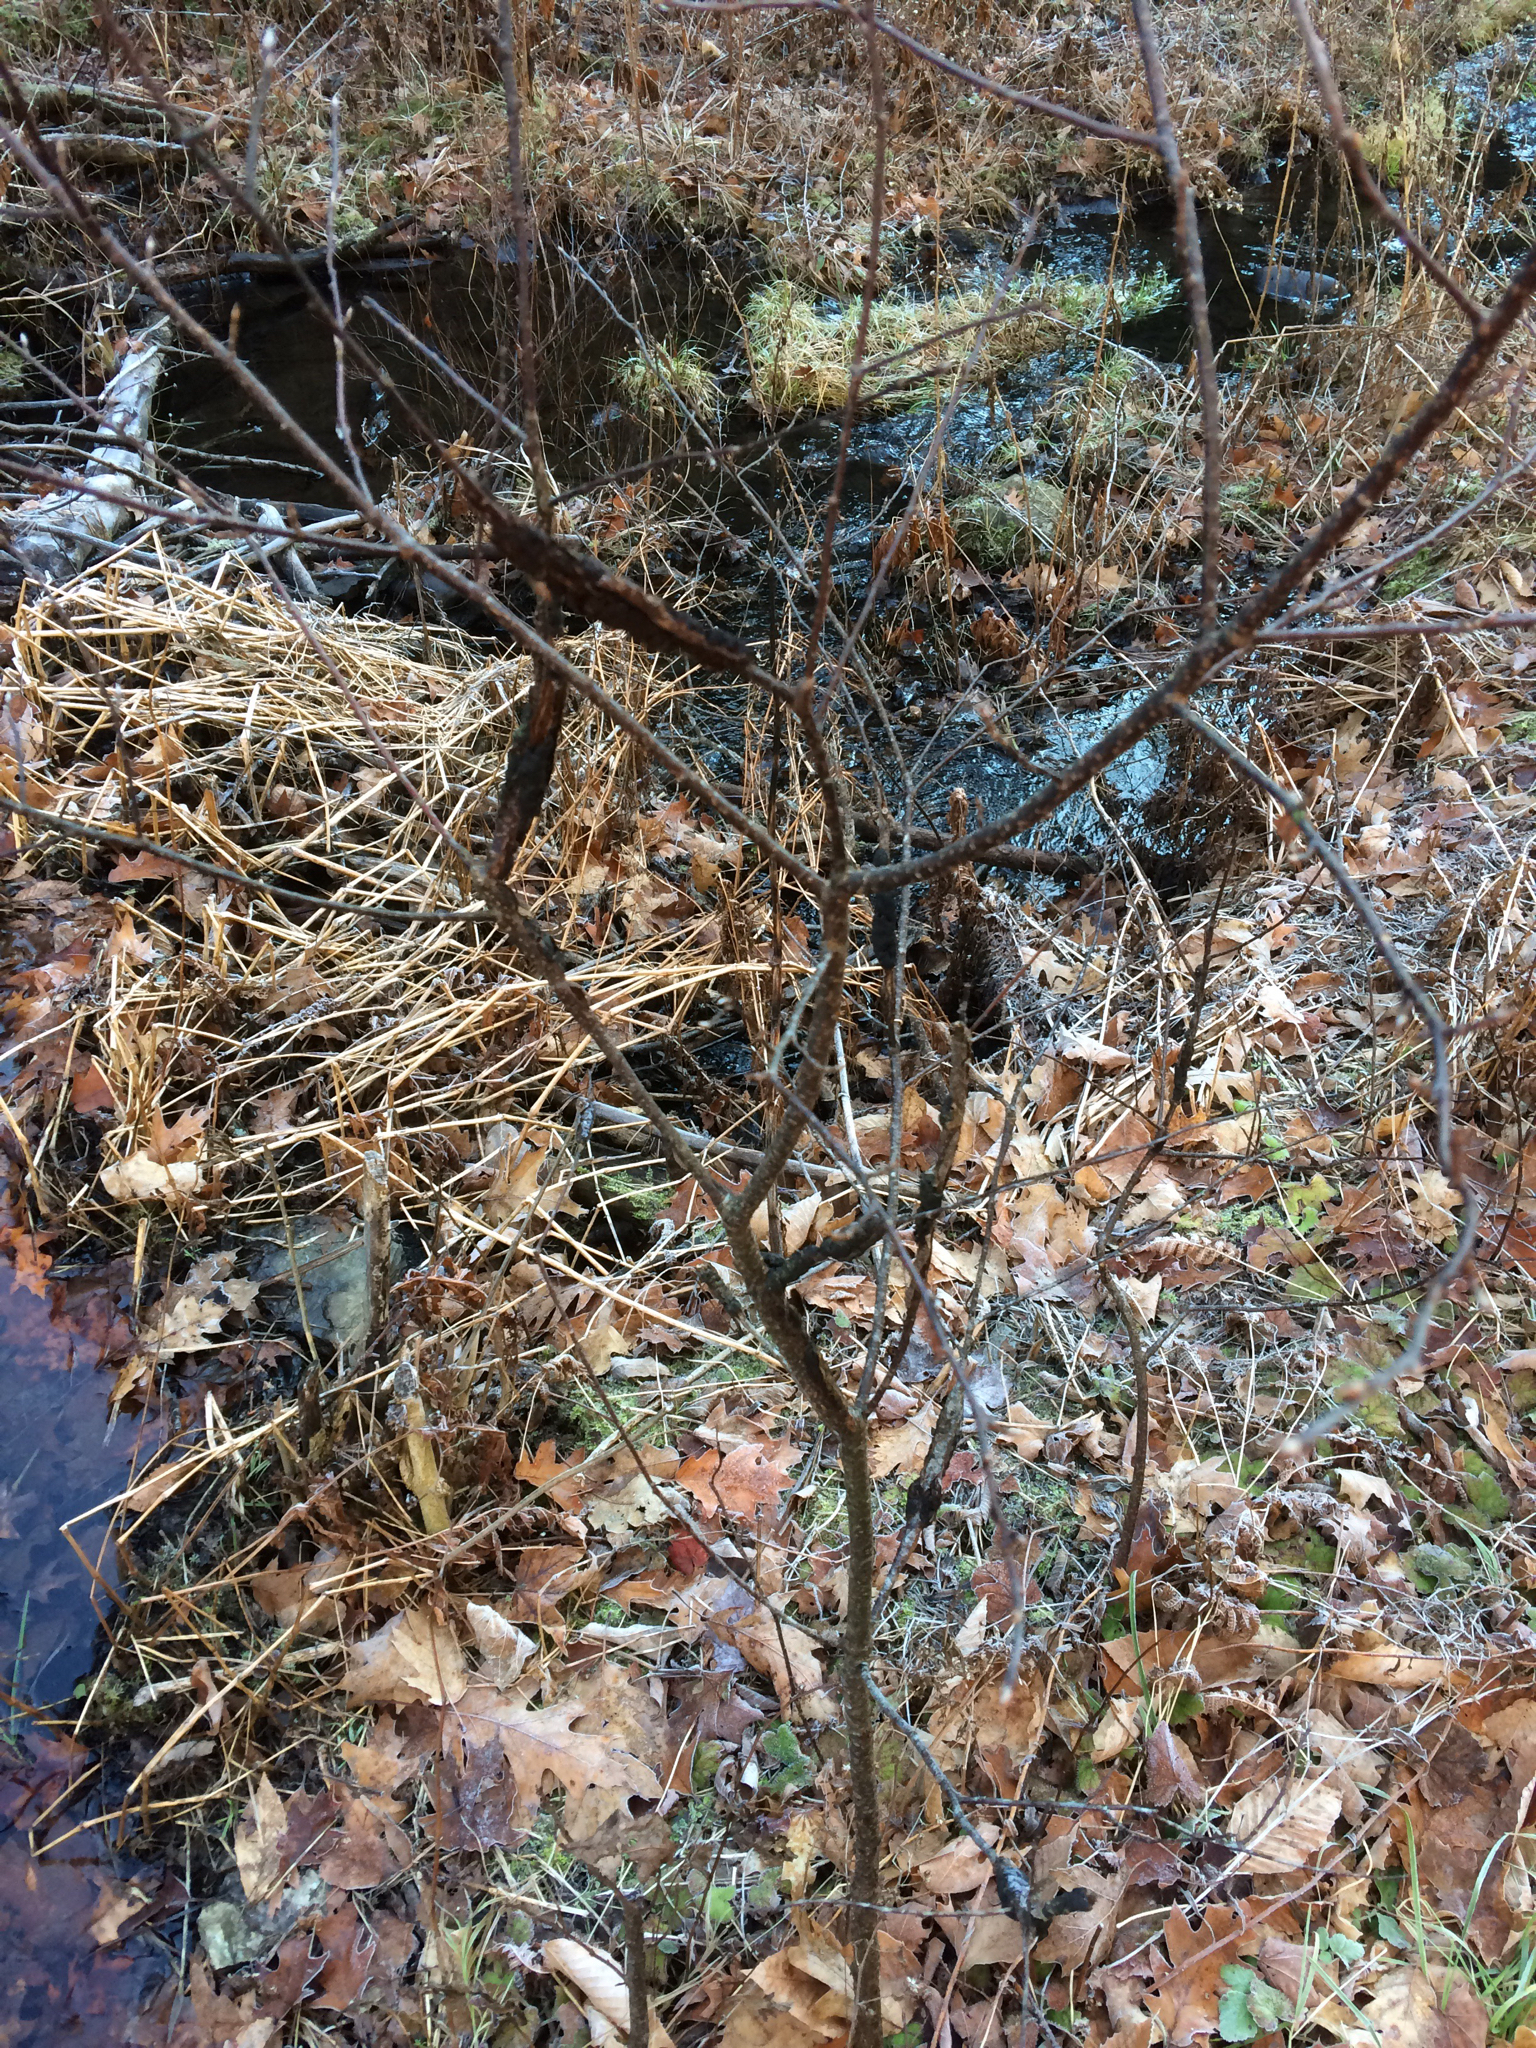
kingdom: Plantae
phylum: Tracheophyta
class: Magnoliopsida
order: Rosales
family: Rosaceae
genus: Prunus
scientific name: Prunus serotina
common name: Black cherry
